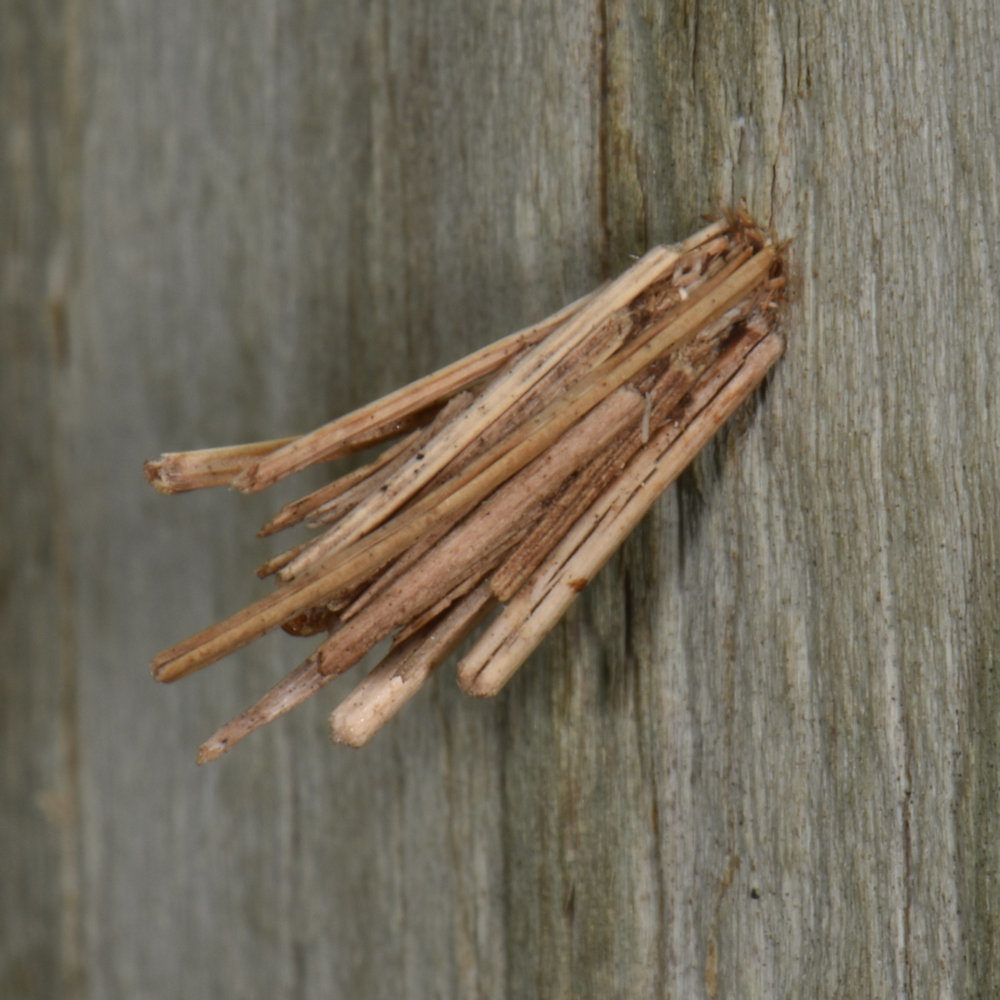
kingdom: Animalia
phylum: Arthropoda
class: Insecta
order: Lepidoptera
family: Psychidae
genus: Psyche
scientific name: Psyche casta
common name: Common sweep
